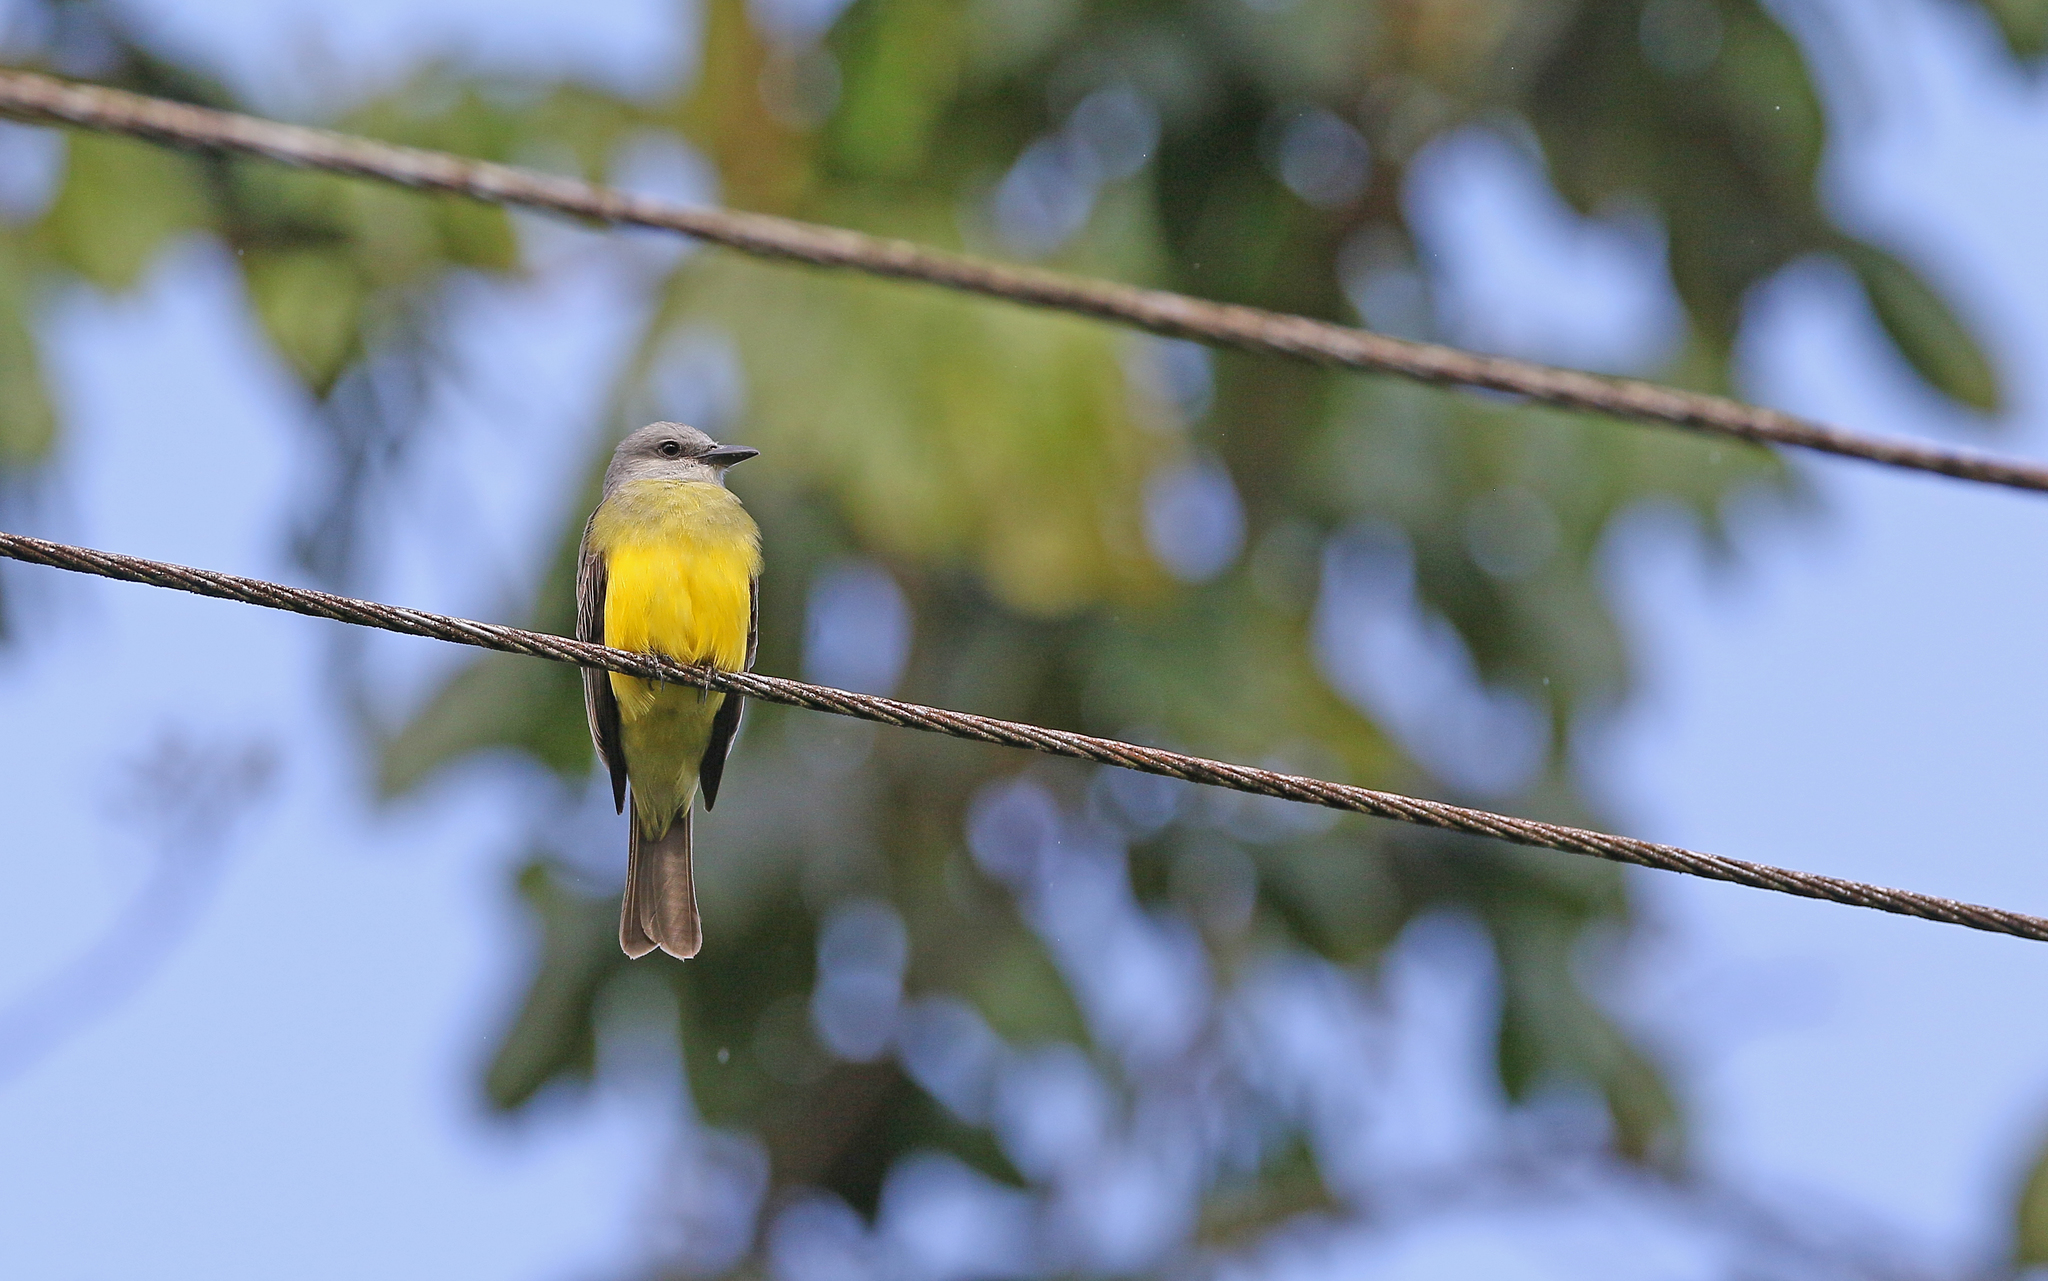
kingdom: Animalia
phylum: Chordata
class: Aves
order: Passeriformes
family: Tyrannidae
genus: Tyrannus
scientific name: Tyrannus melancholicus
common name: Tropical kingbird
